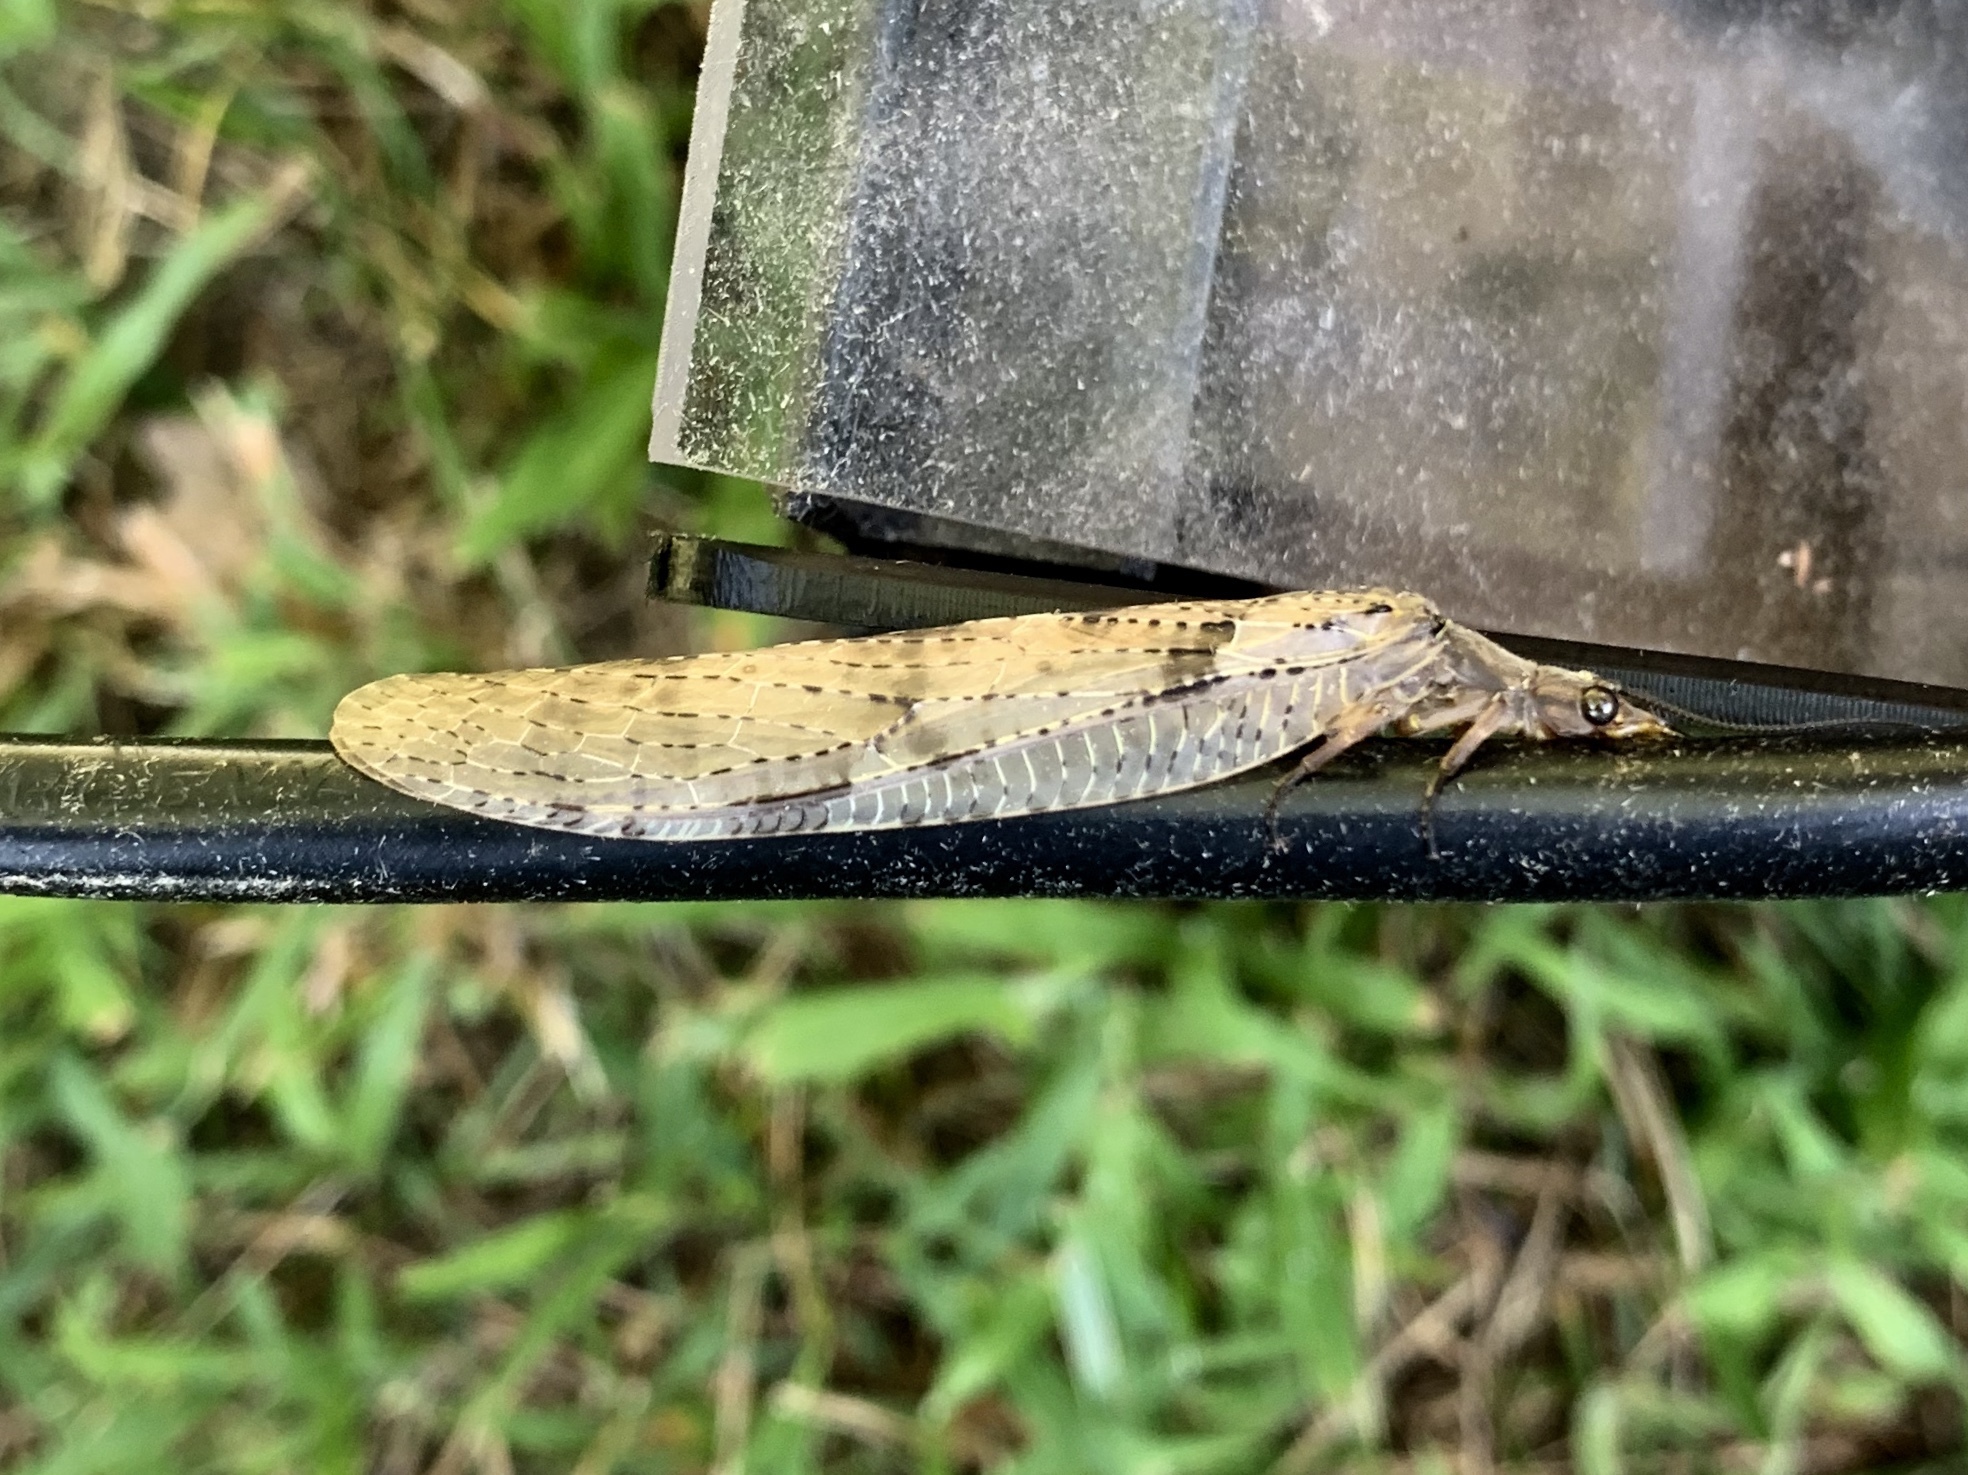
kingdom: Animalia
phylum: Arthropoda
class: Insecta
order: Megaloptera
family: Corydalidae
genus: Chauliodes
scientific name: Chauliodes pectinicornis
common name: Summer fishfly
